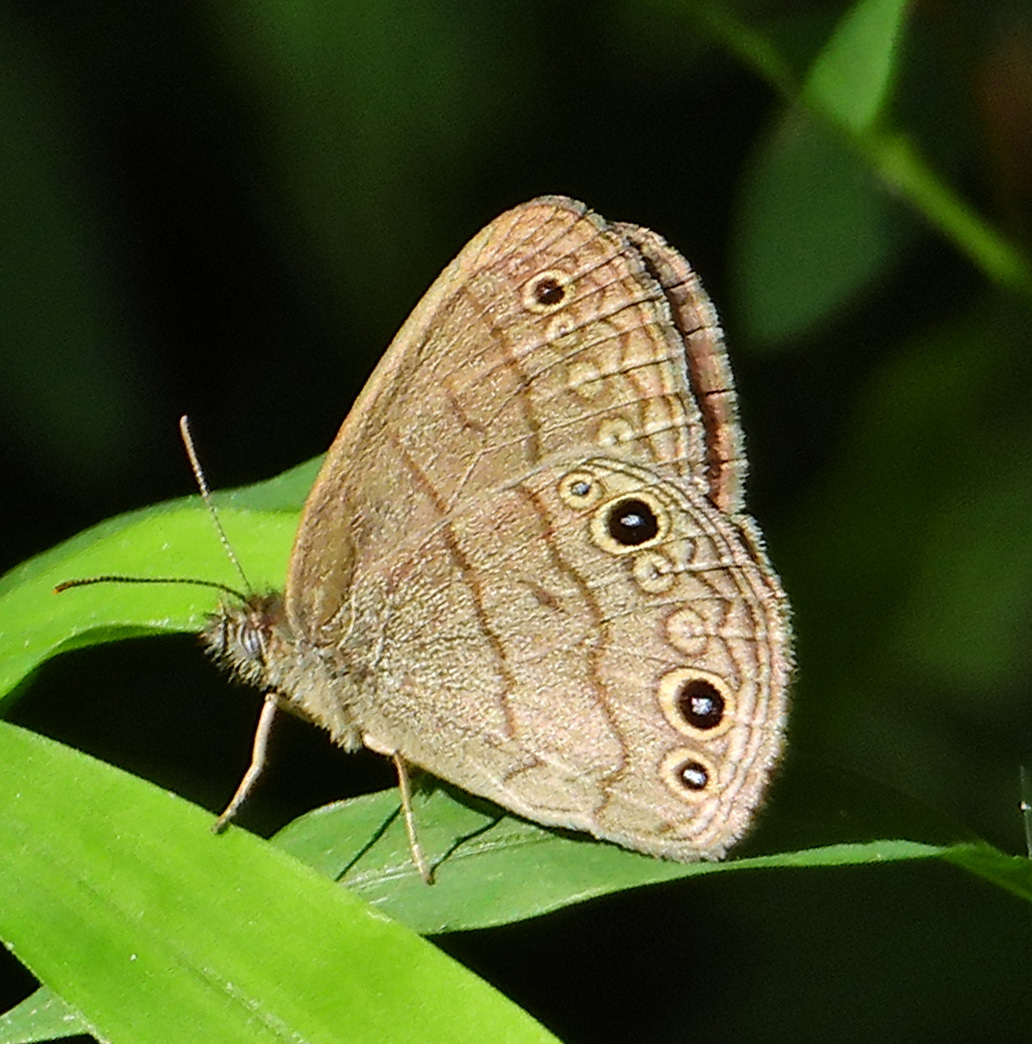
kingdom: Animalia
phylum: Arthropoda
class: Insecta
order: Lepidoptera
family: Nymphalidae
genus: Hermeuptychia
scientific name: Hermeuptychia hermes
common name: Hermes satyr
